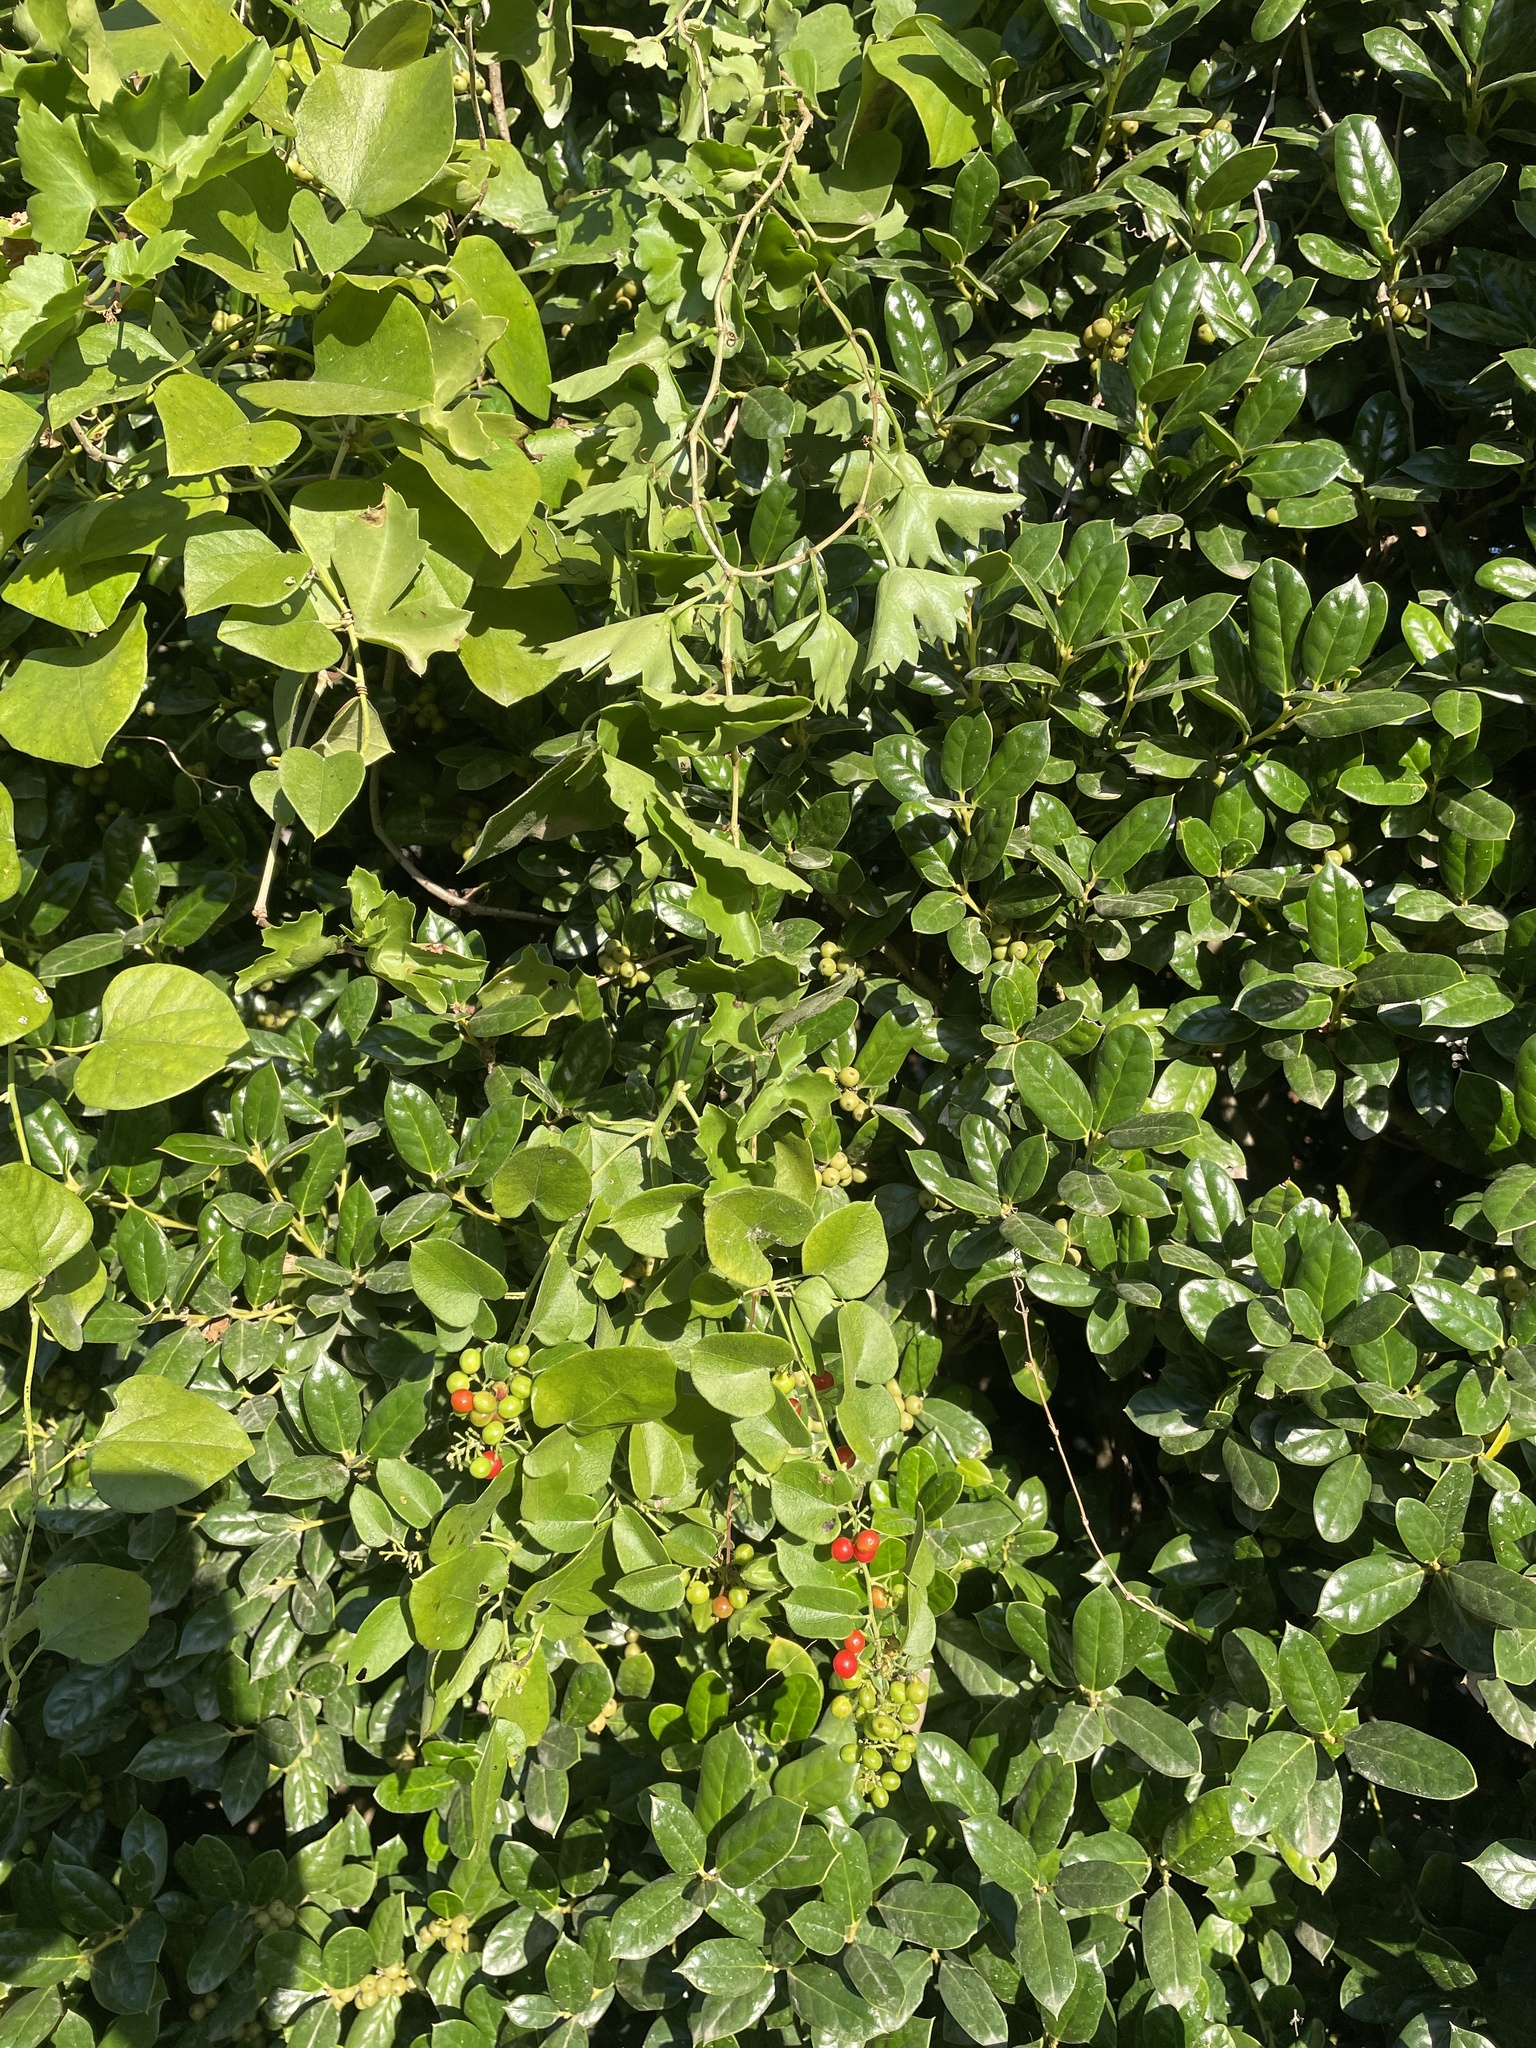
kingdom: Plantae
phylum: Tracheophyta
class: Magnoliopsida
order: Ranunculales
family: Menispermaceae
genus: Cocculus
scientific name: Cocculus carolinus
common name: Carolina moonseed
